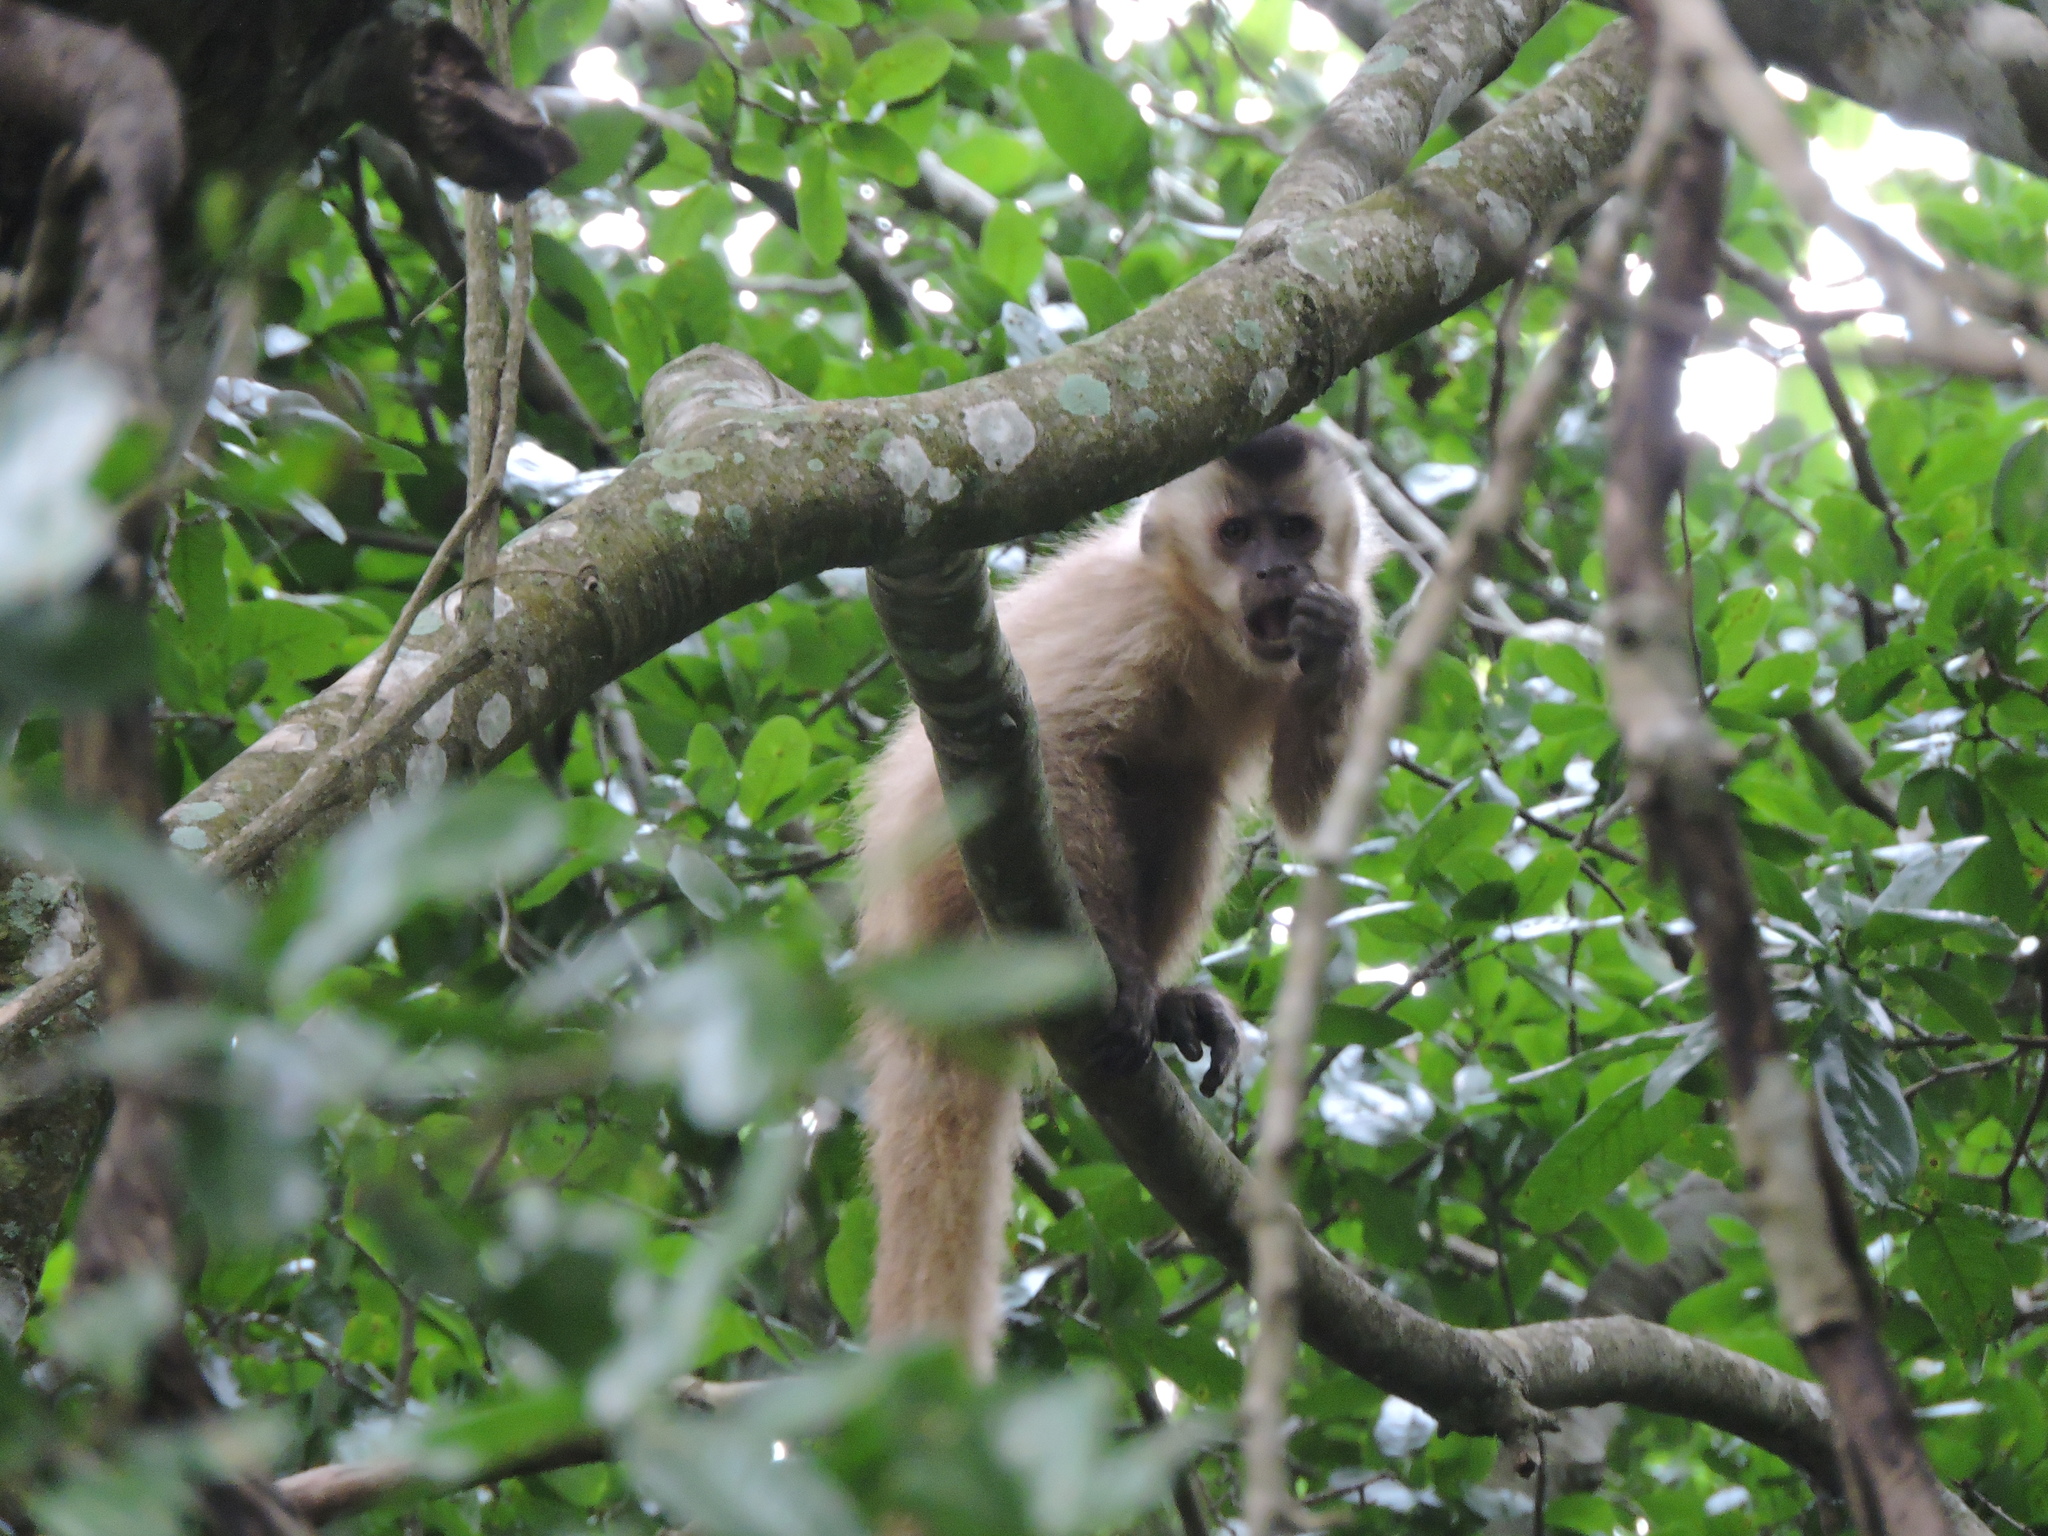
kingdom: Animalia
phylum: Chordata
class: Mammalia
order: Primates
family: Cebidae
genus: Sapajus
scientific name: Sapajus cay
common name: Hooded capuchin
